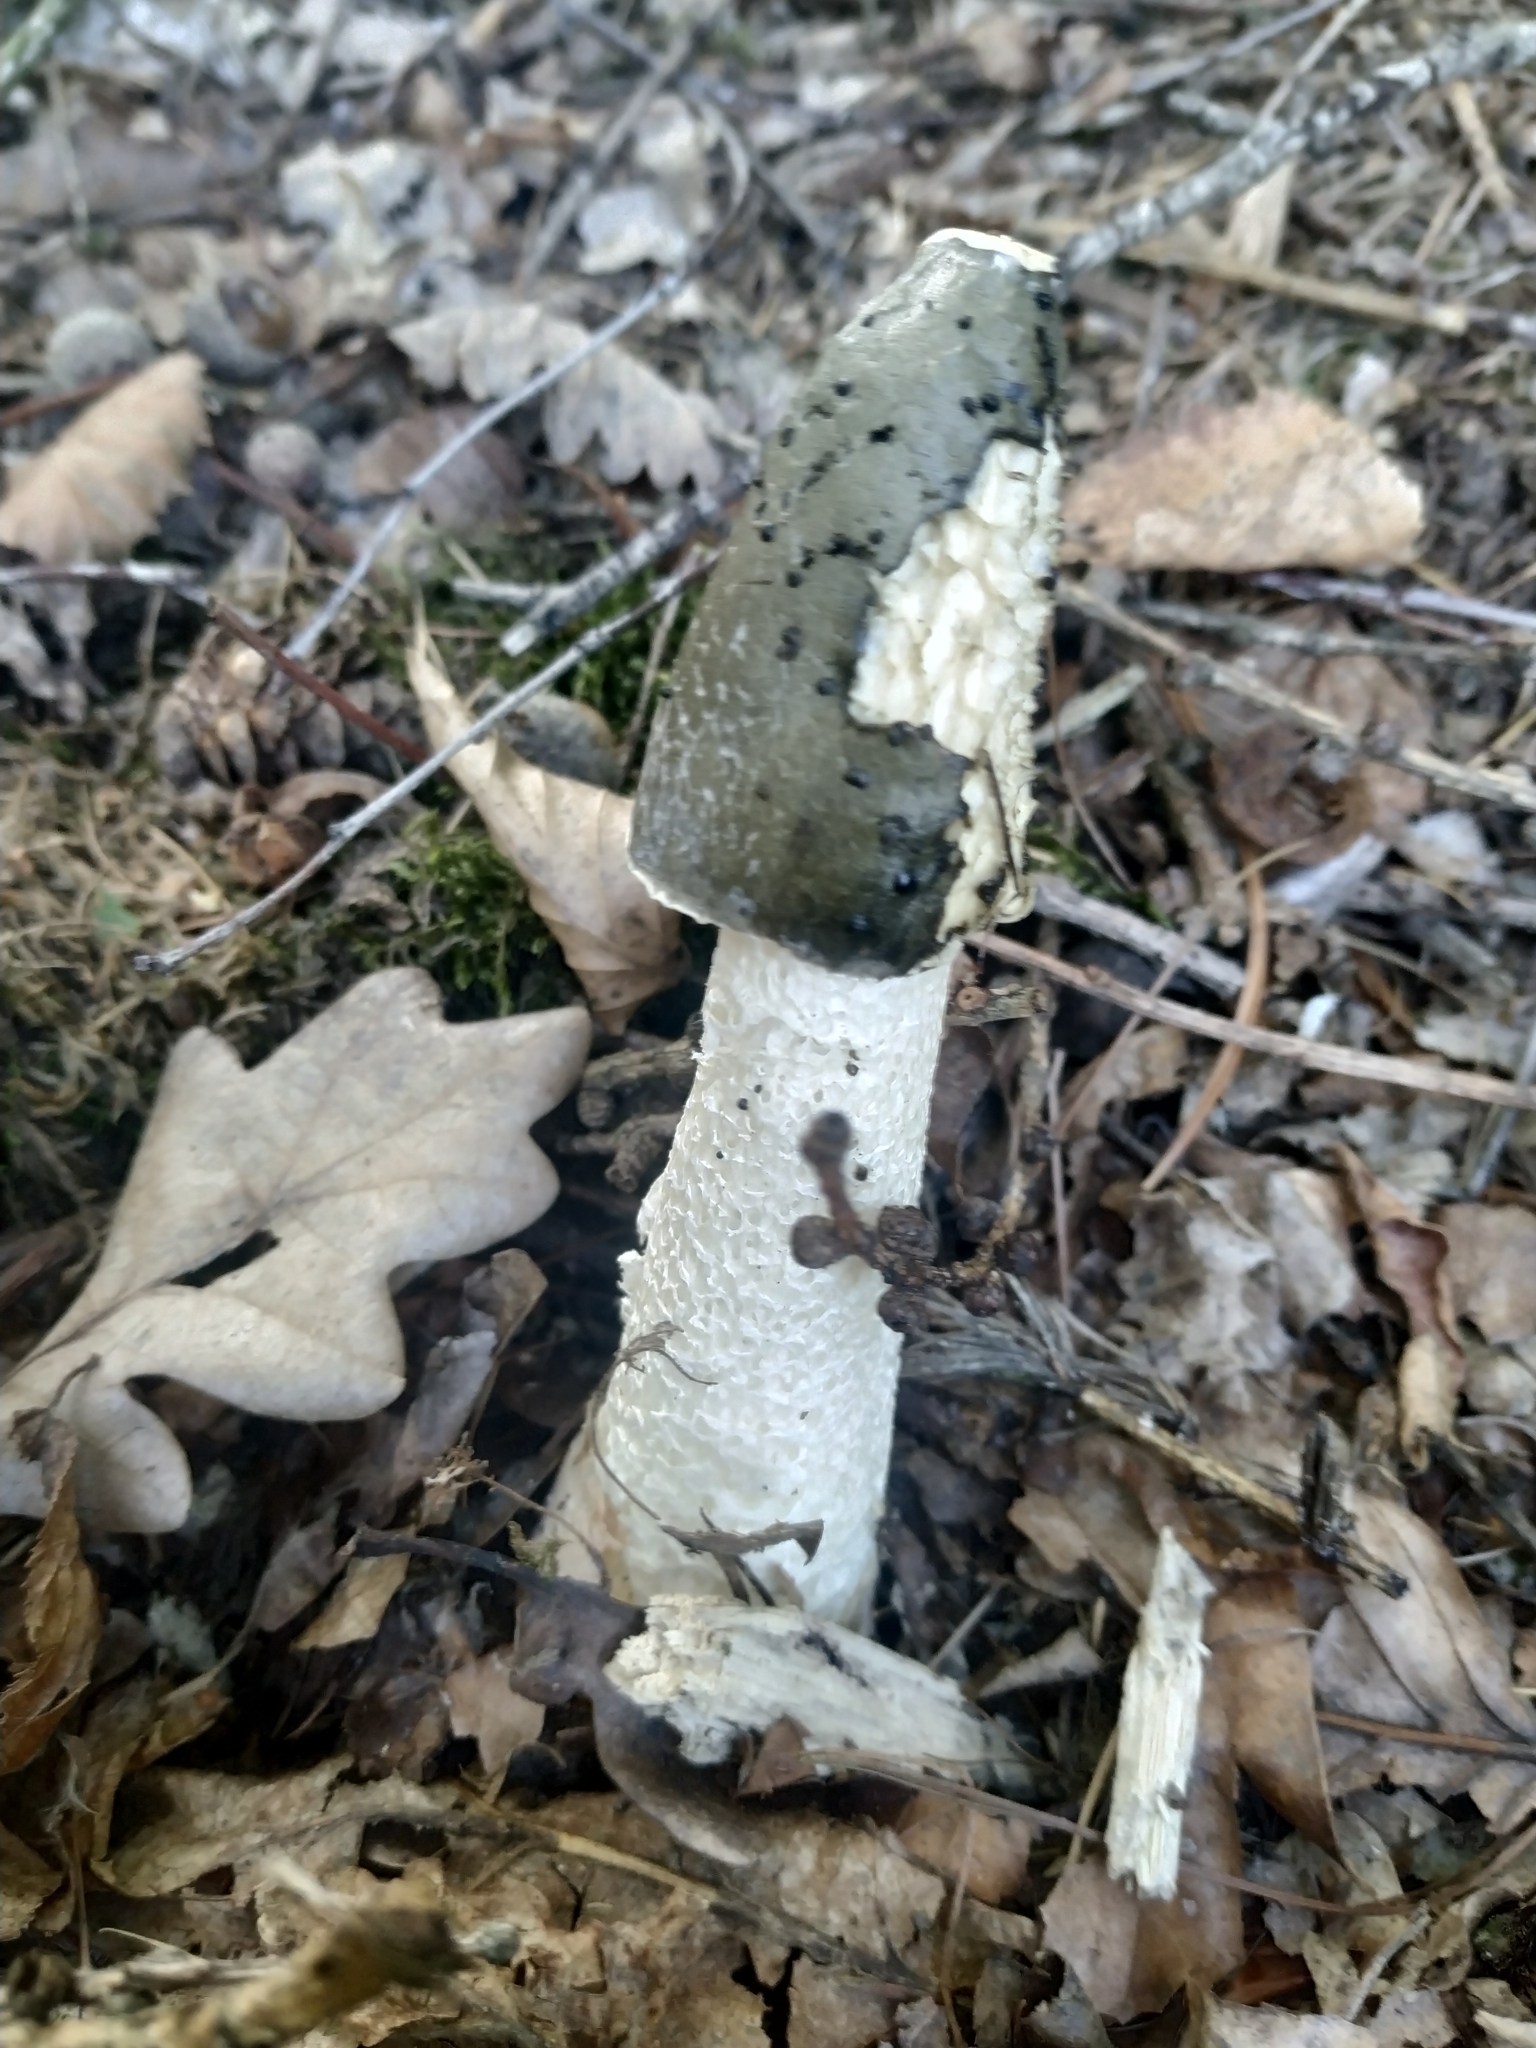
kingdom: Fungi
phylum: Basidiomycota
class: Agaricomycetes
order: Phallales
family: Phallaceae
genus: Phallus
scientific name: Phallus impudicus
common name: Common stinkhorn
